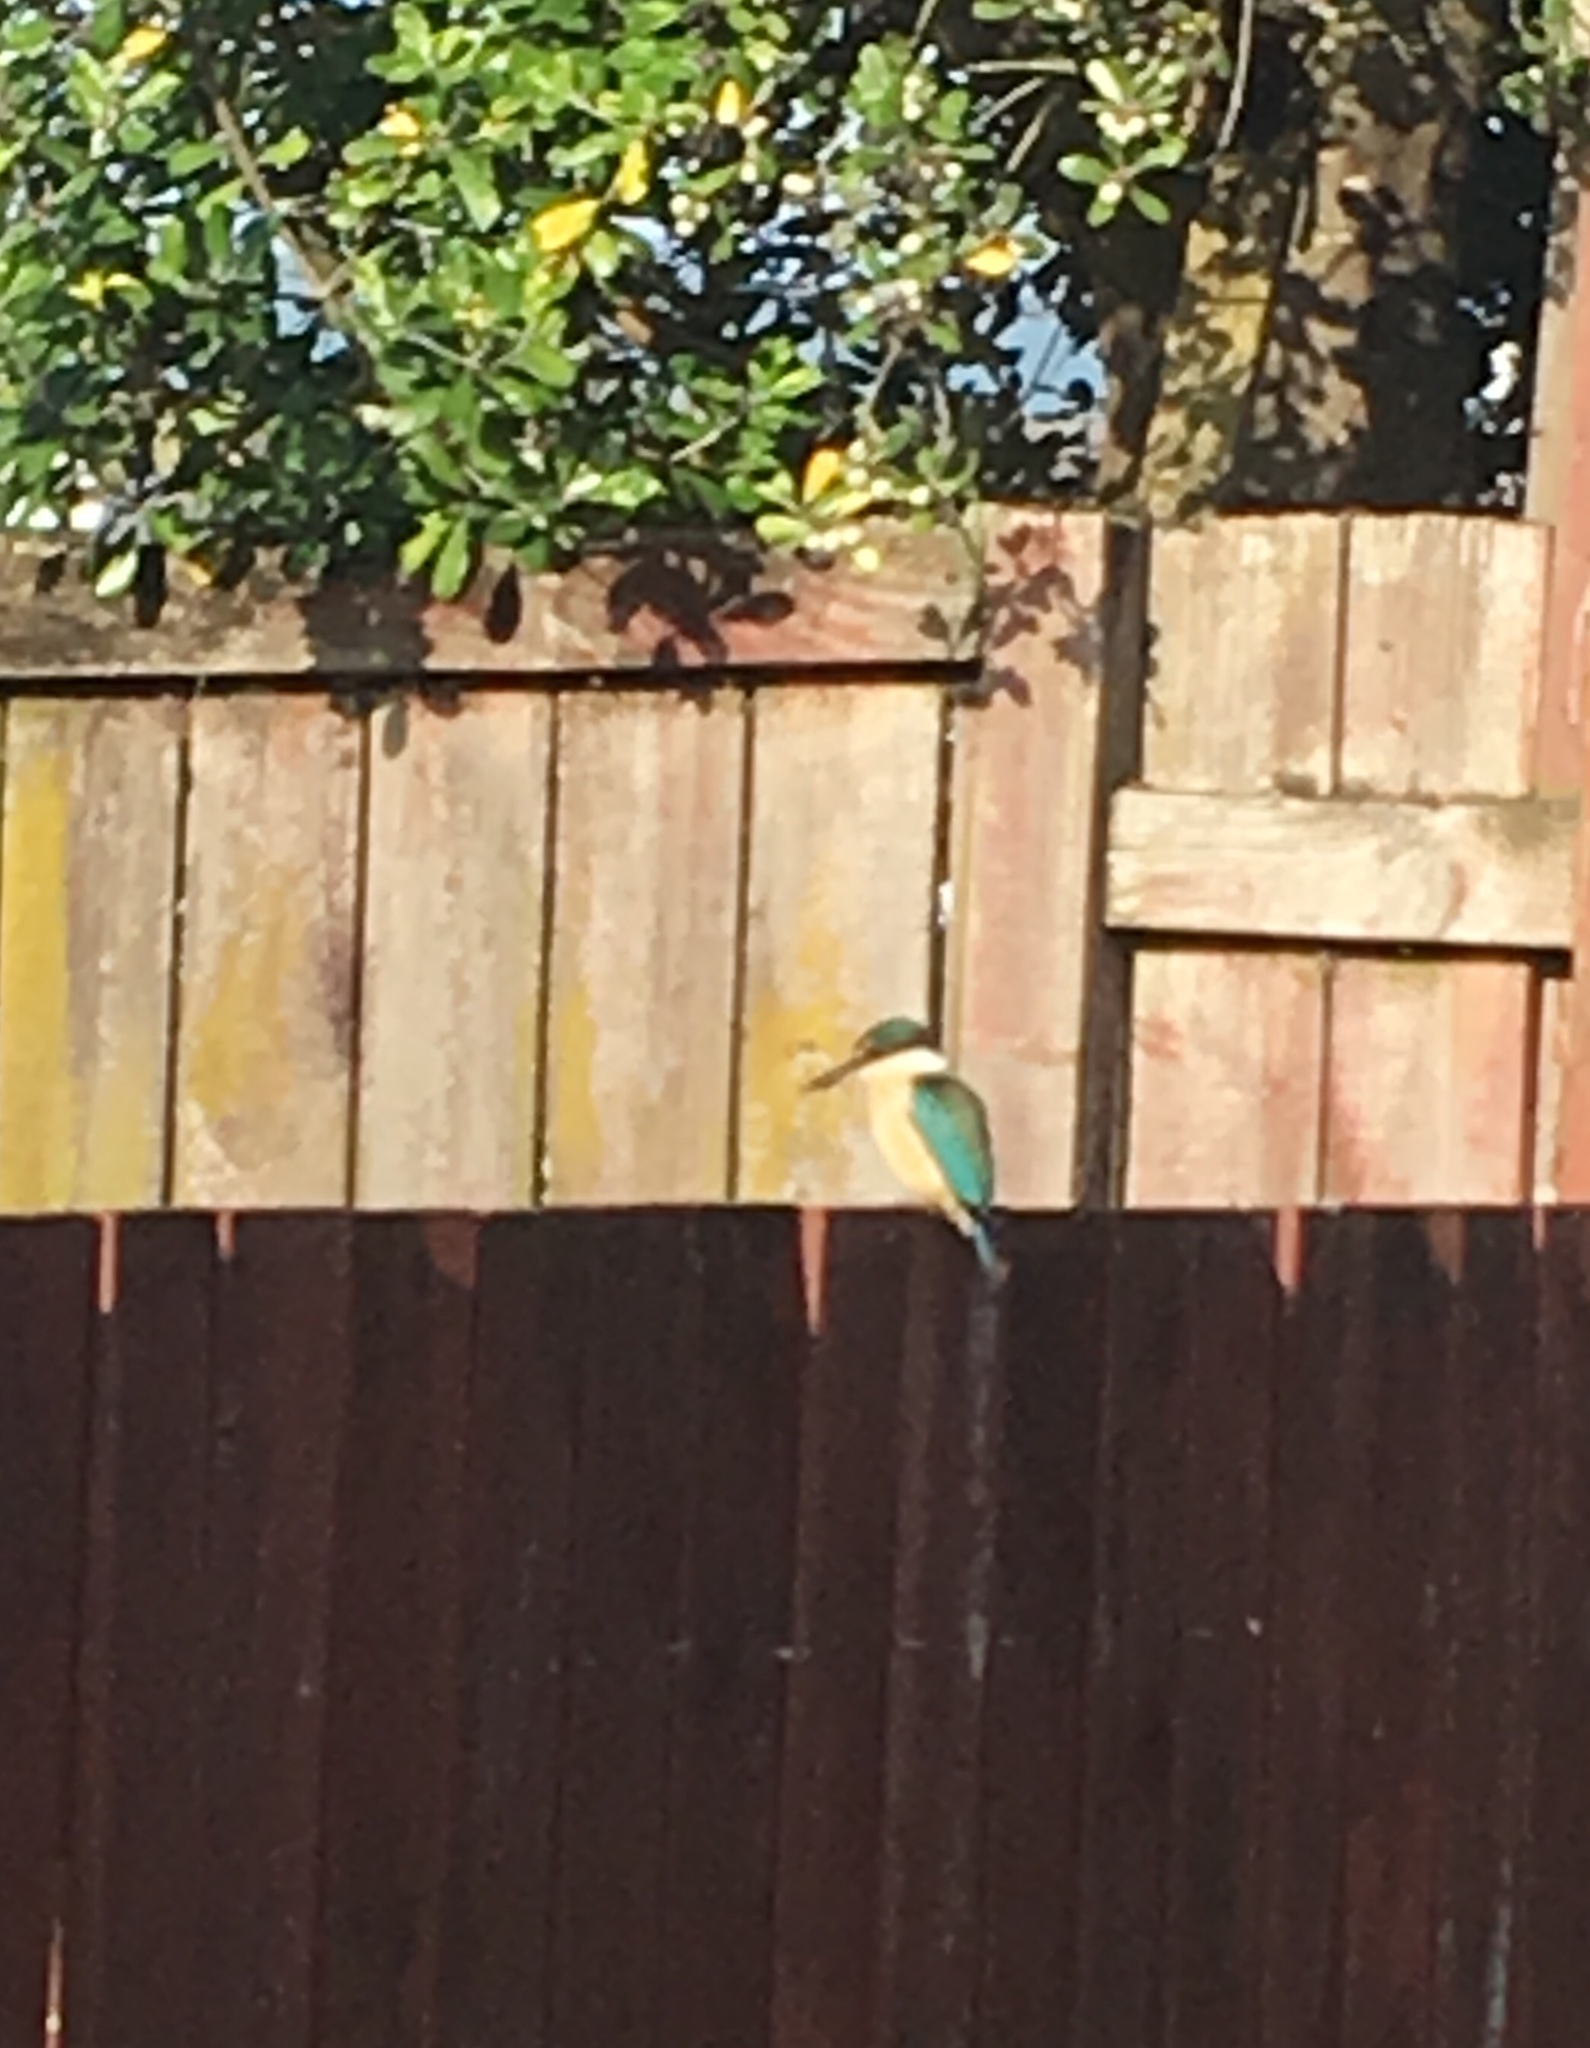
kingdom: Animalia
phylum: Chordata
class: Aves
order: Coraciiformes
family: Alcedinidae
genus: Todiramphus
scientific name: Todiramphus sanctus
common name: Sacred kingfisher
